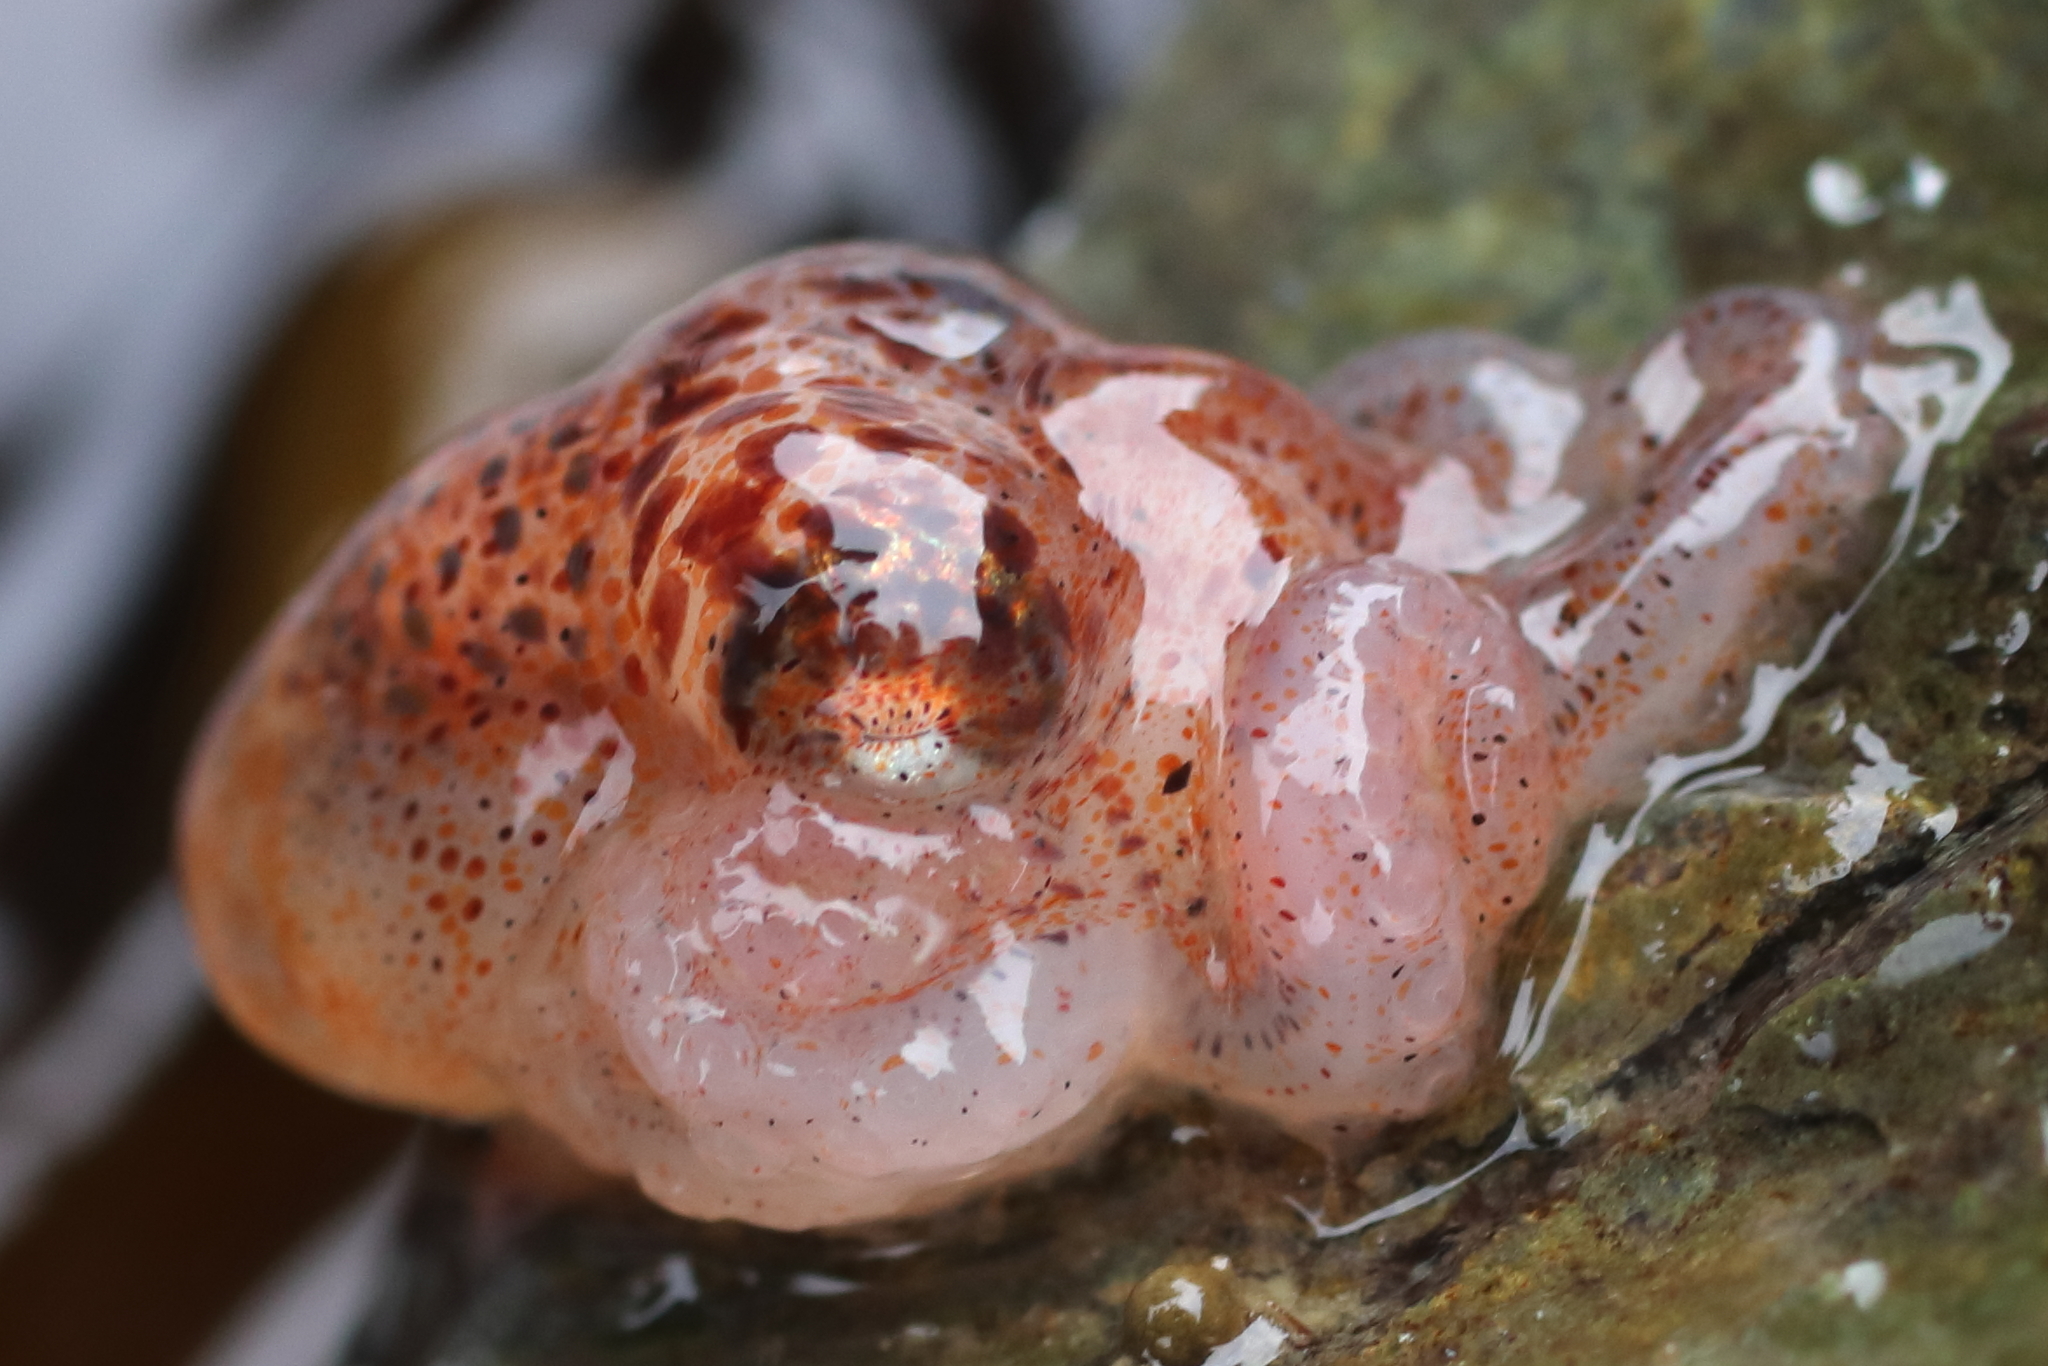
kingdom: Animalia
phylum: Mollusca
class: Cephalopoda
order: Octopoda
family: Enteroctopodidae
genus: Enteroctopus
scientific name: Enteroctopus dofleini
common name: Giant north pacific octopus
